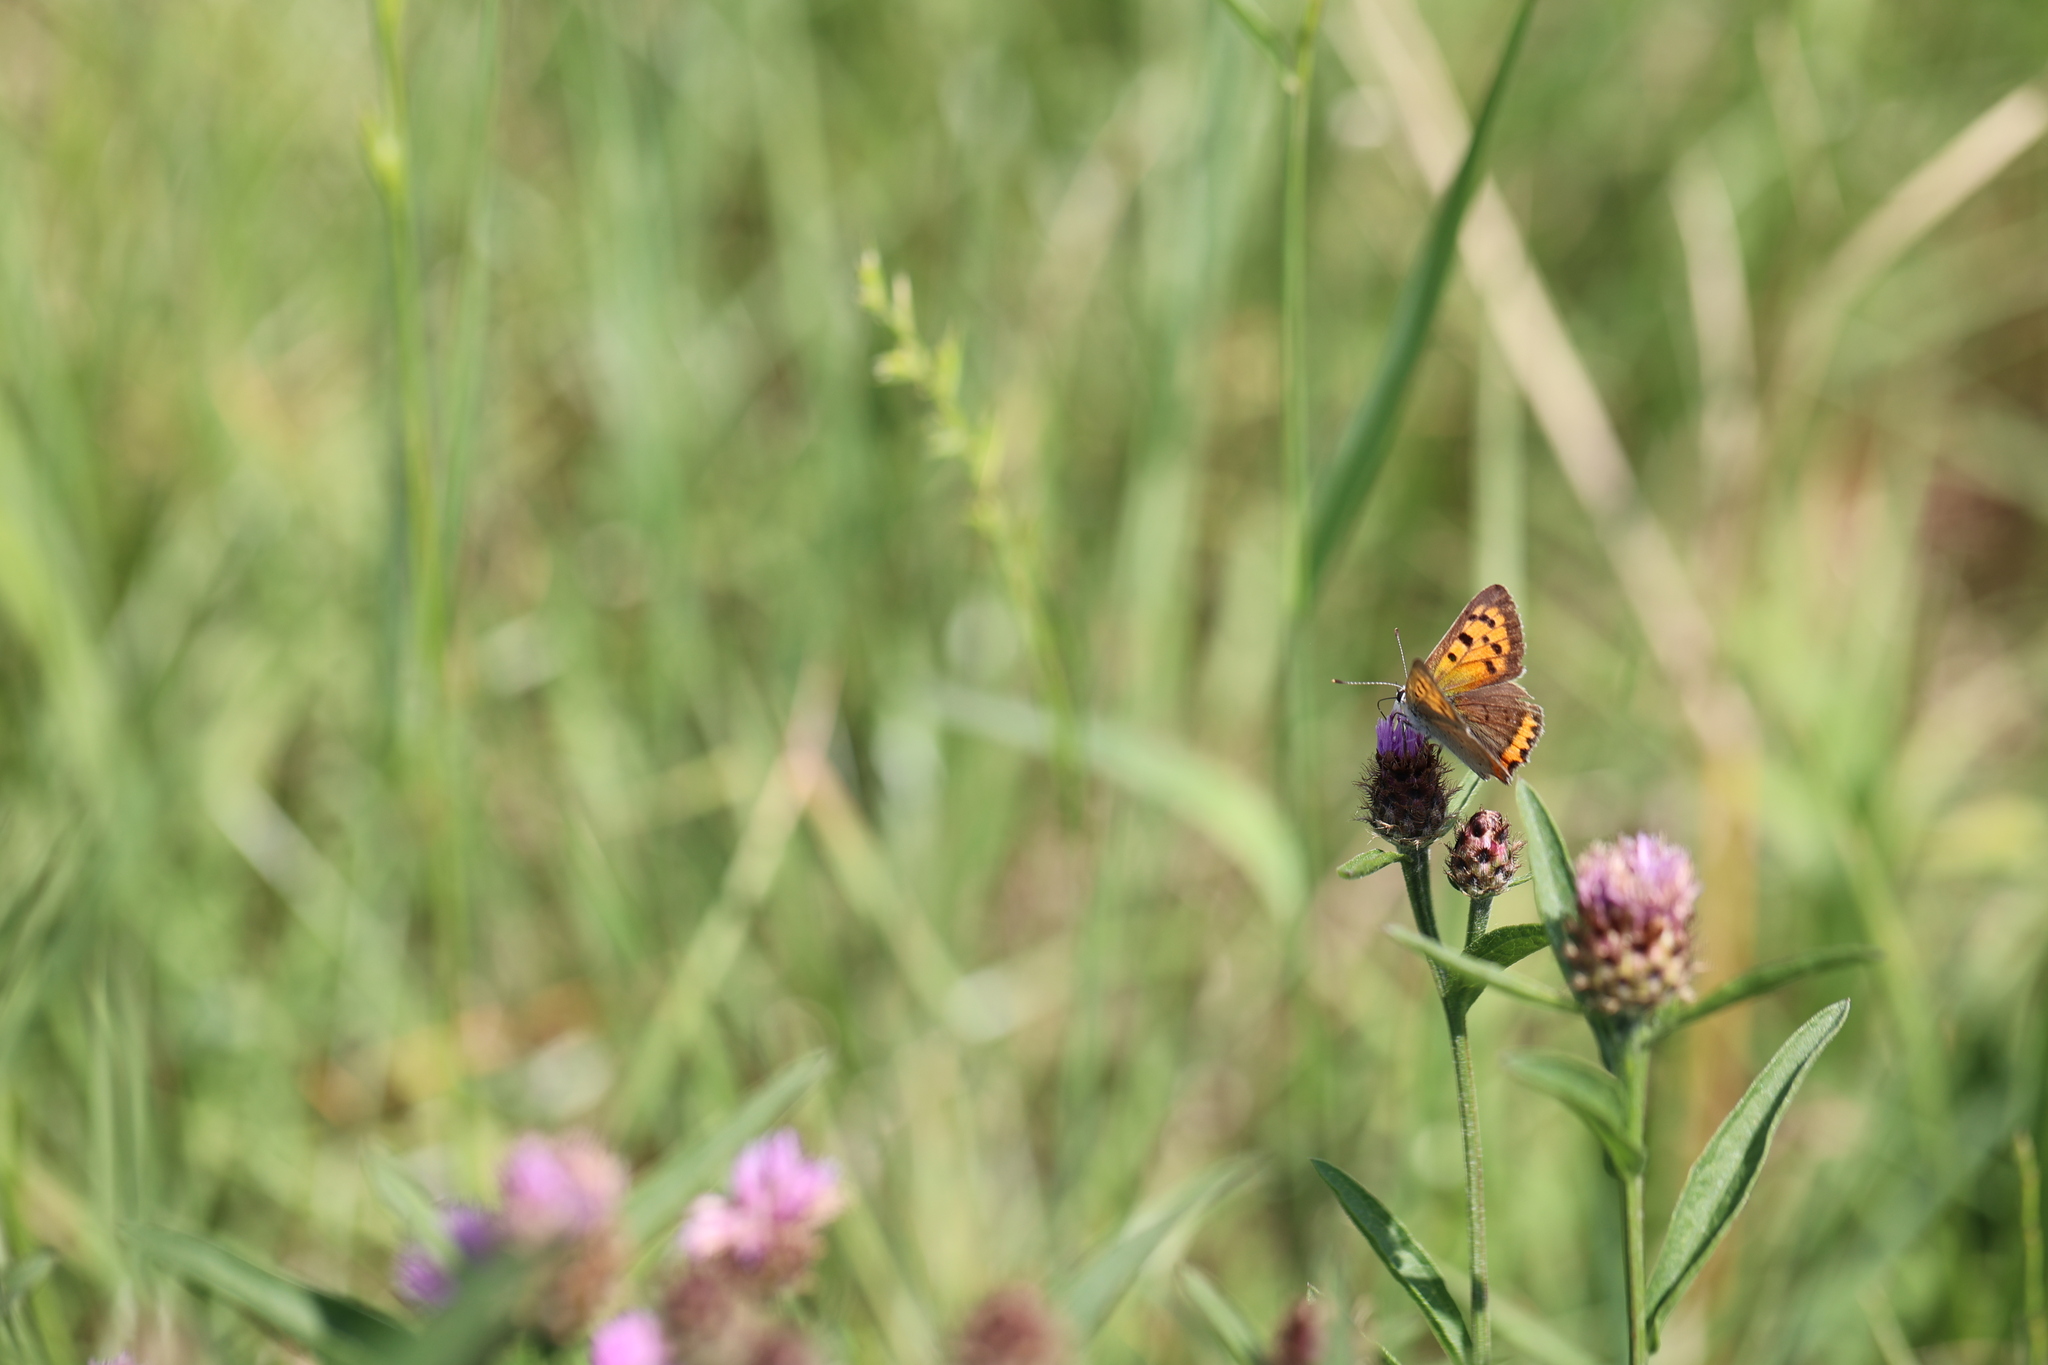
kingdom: Animalia
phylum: Arthropoda
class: Insecta
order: Lepidoptera
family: Lycaenidae
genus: Lycaena
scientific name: Lycaena phlaeas
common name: Small copper
